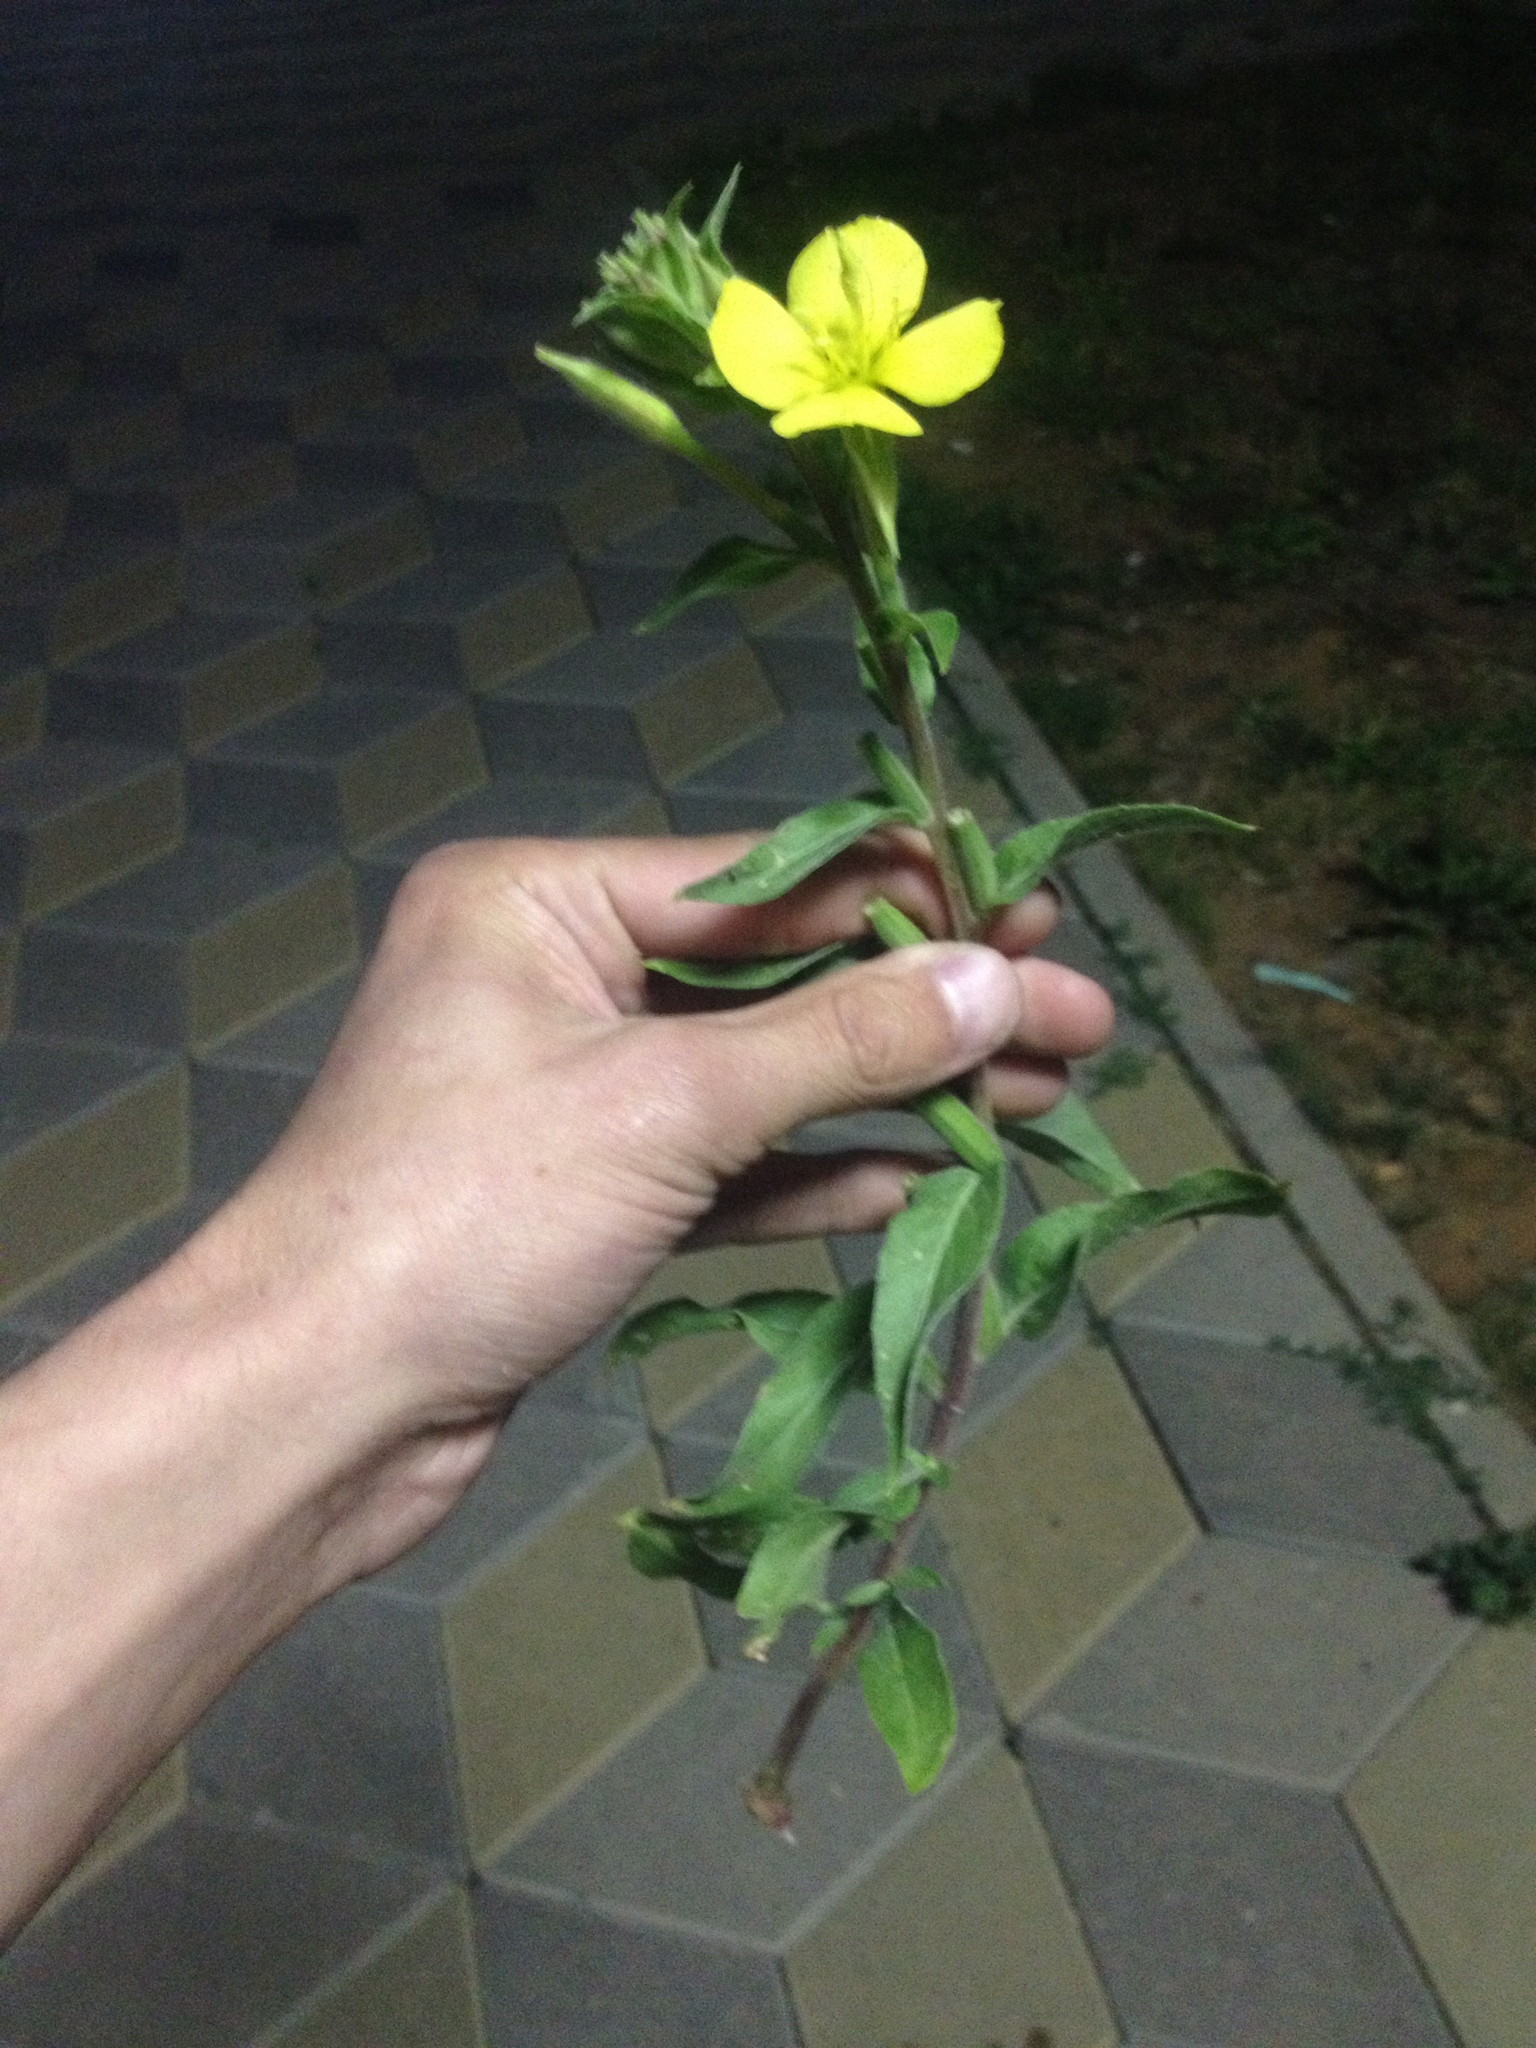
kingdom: Plantae
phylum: Tracheophyta
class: Magnoliopsida
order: Myrtales
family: Onagraceae
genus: Oenothera
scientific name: Oenothera
